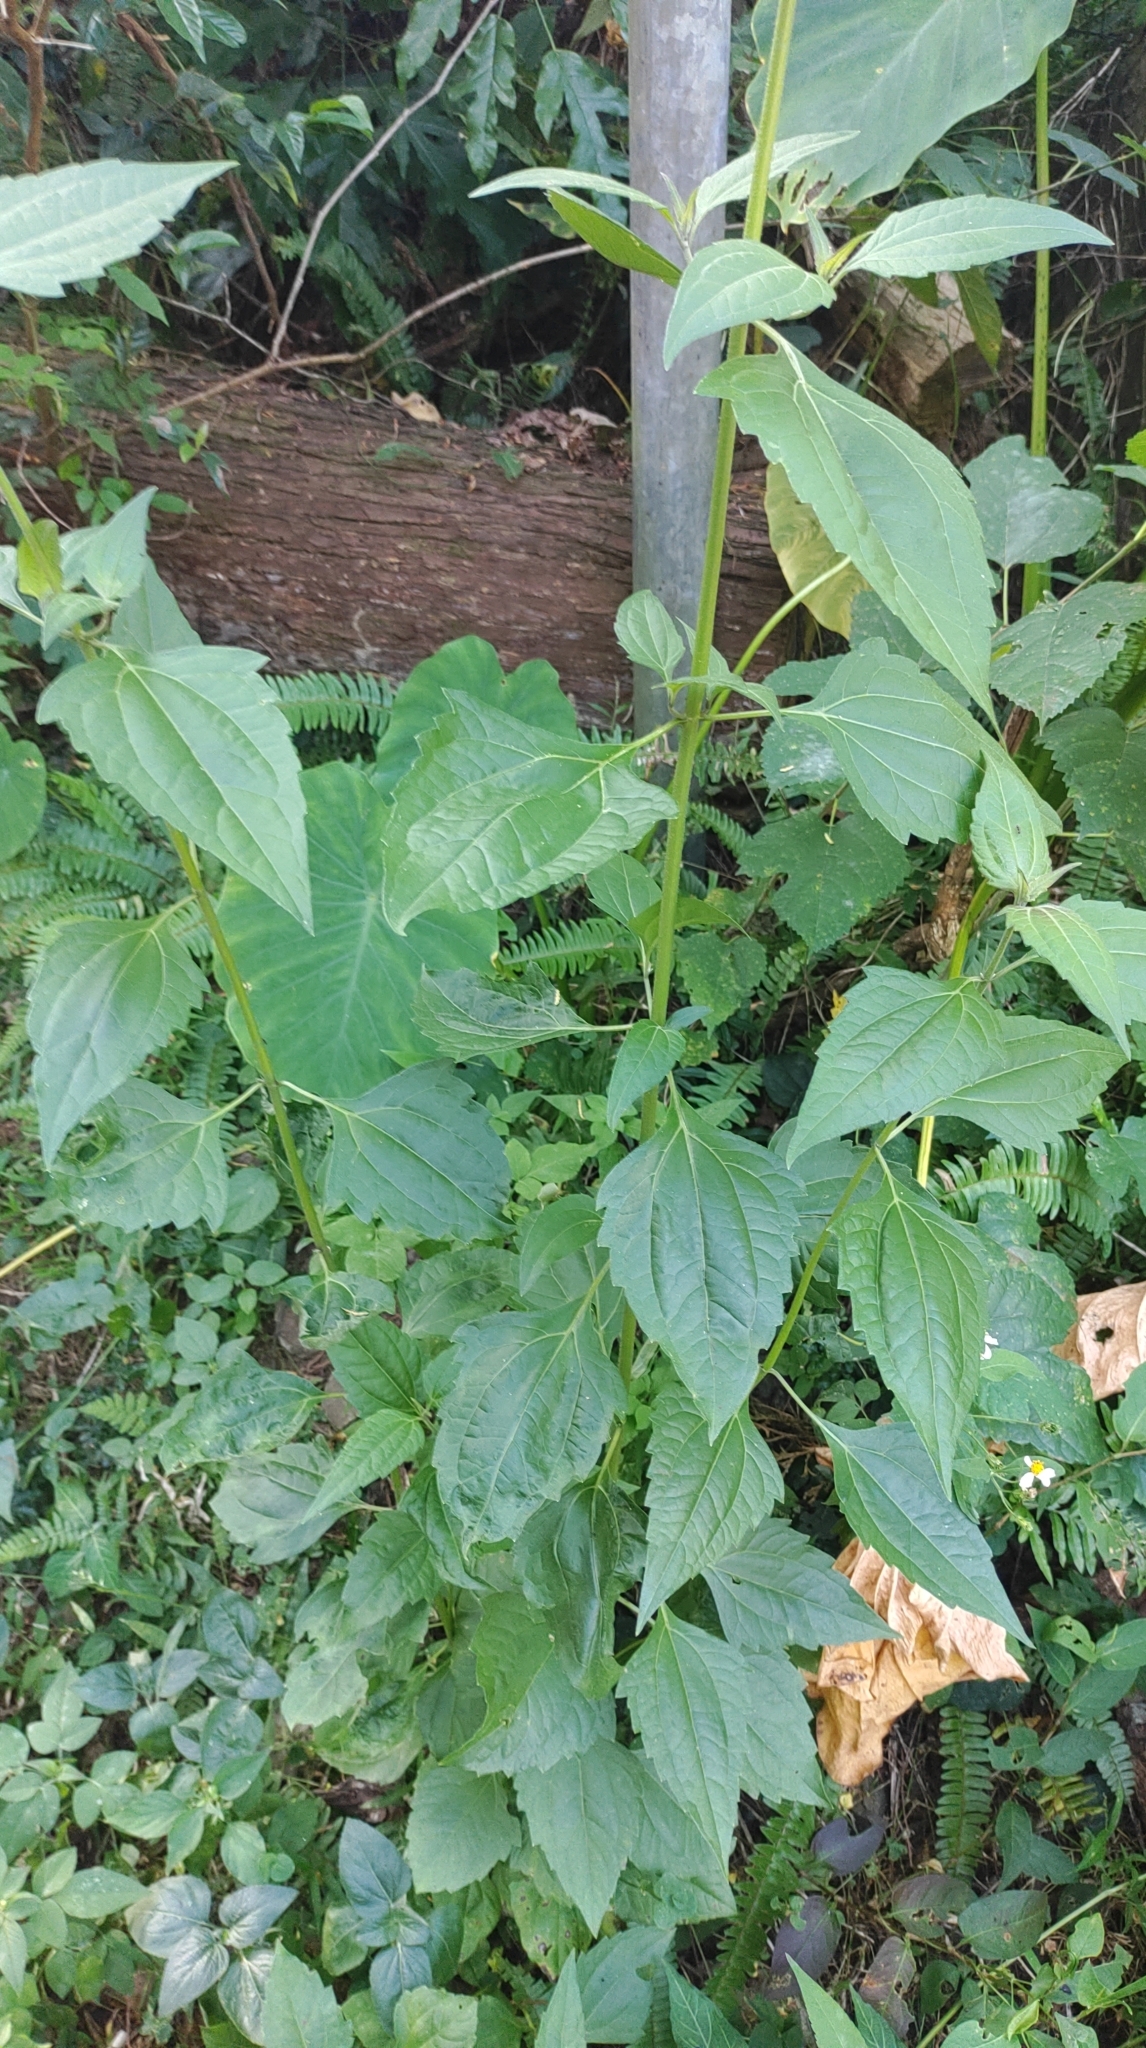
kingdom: Plantae
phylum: Tracheophyta
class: Magnoliopsida
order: Asterales
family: Asteraceae
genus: Chromolaena
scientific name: Chromolaena odorata
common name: Siamweed
